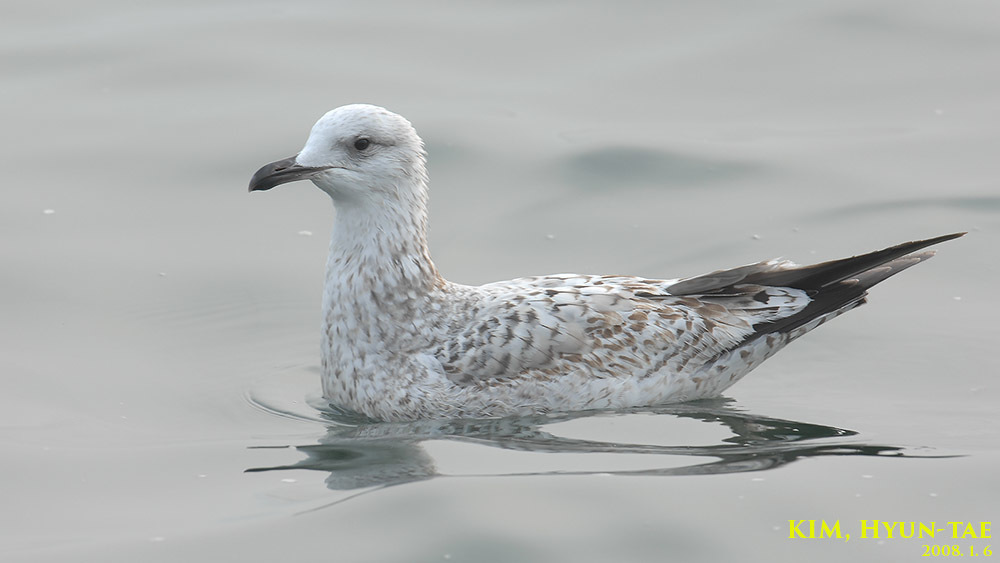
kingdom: Animalia
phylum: Chordata
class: Aves
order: Charadriiformes
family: Laridae
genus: Larus
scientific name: Larus fuscus
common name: Lesser black-backed gull
